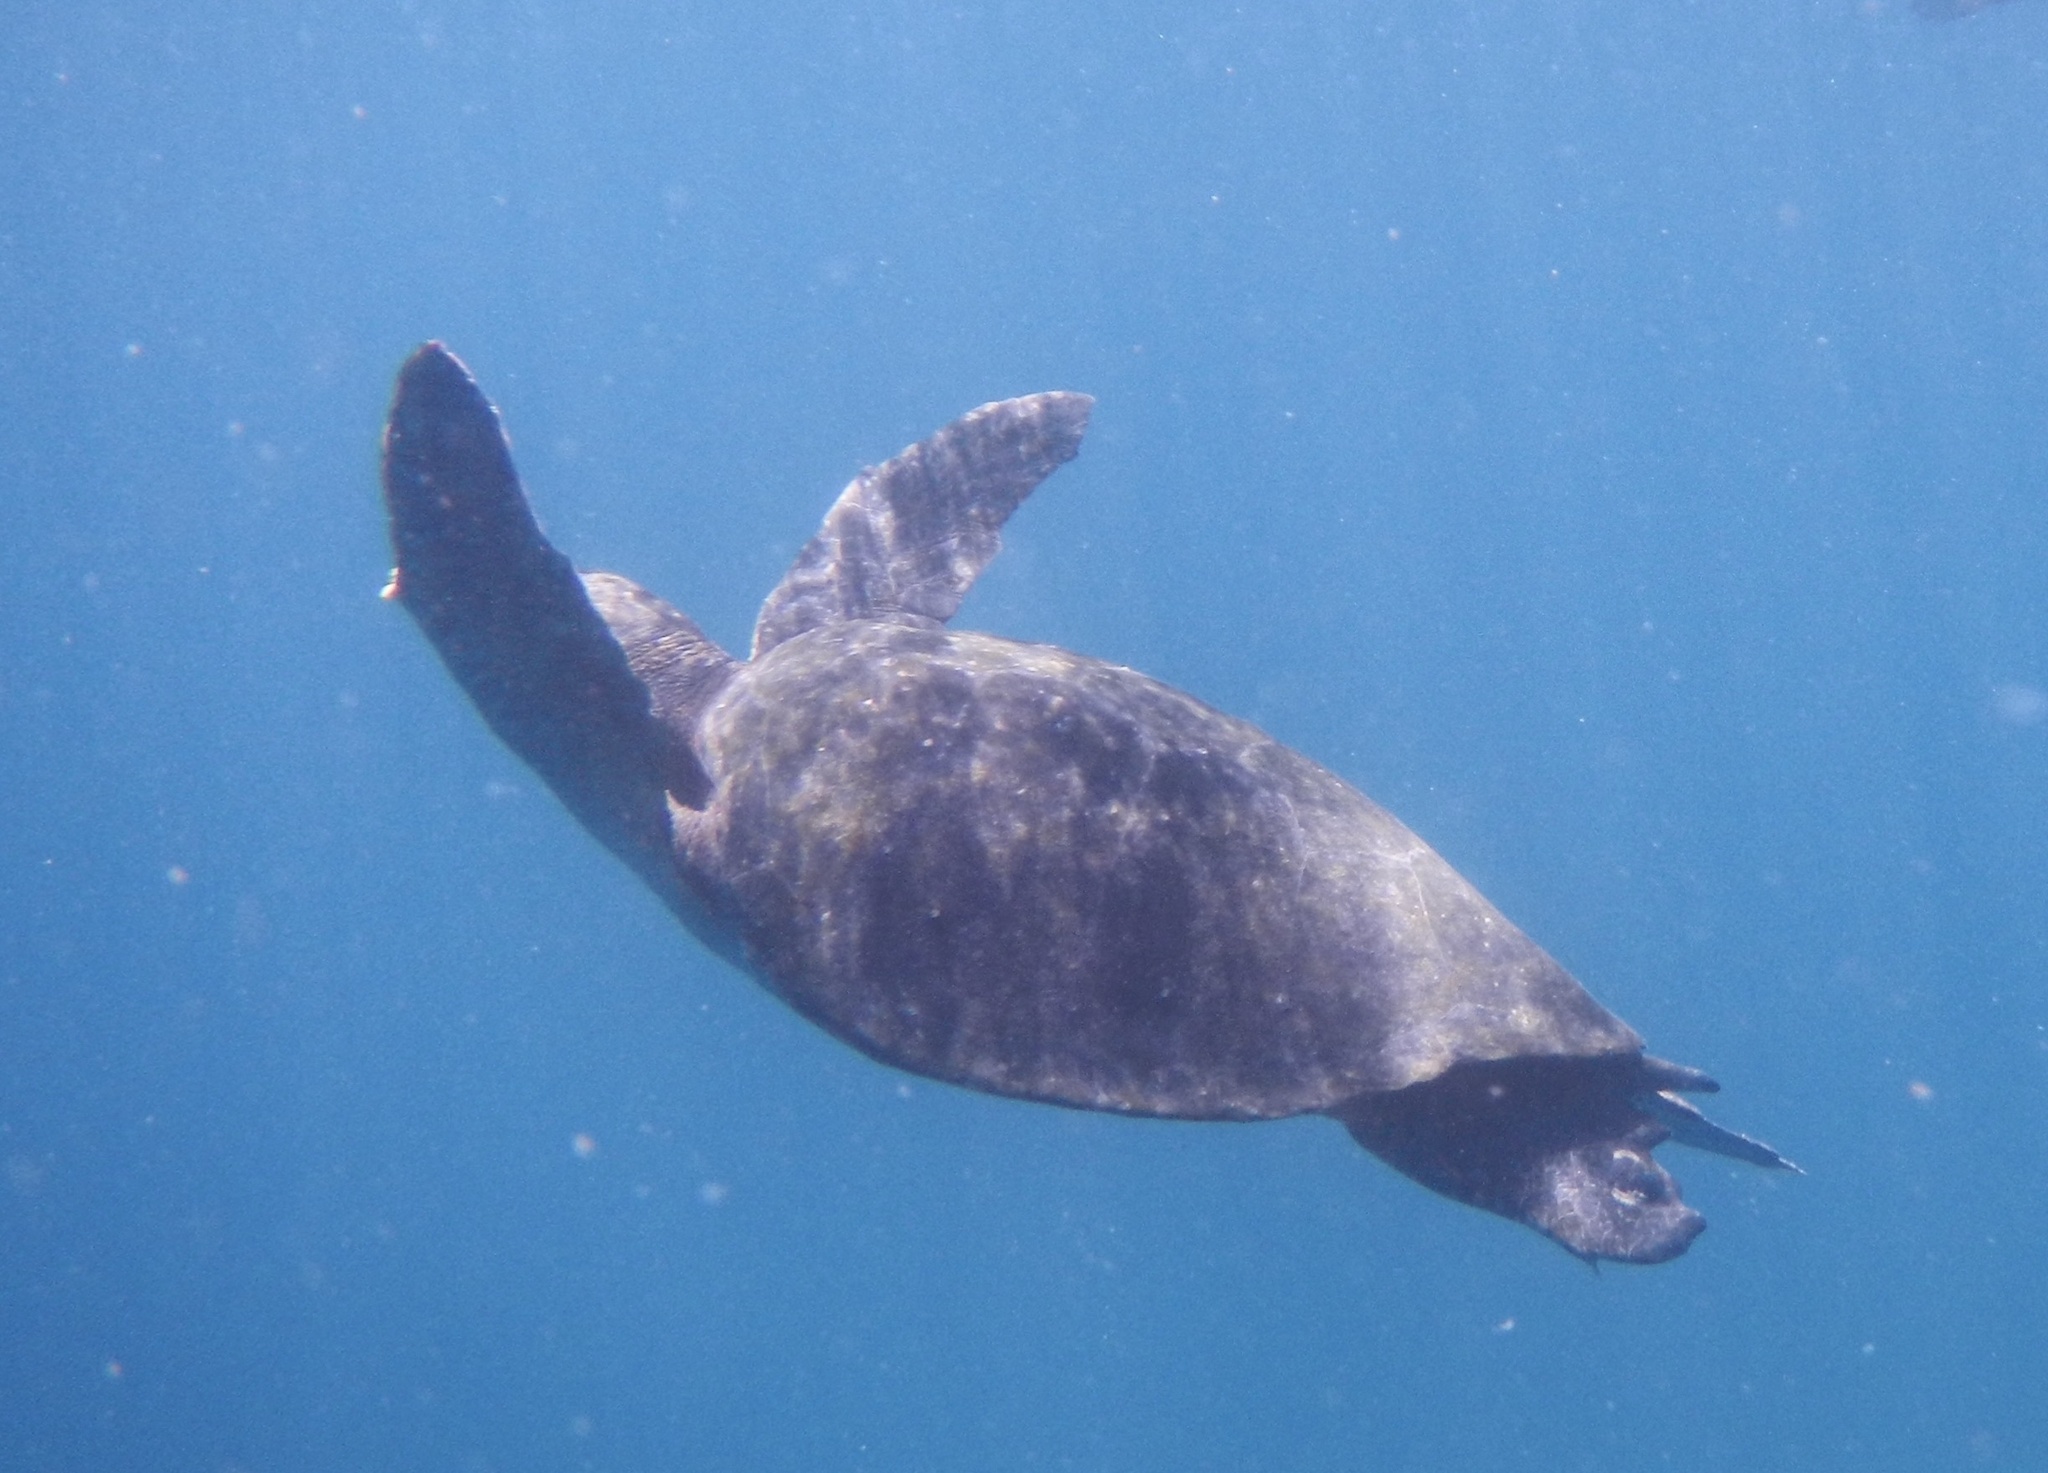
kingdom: Animalia
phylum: Chordata
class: Testudines
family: Cheloniidae
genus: Chelonia
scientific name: Chelonia mydas
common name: Green turtle
